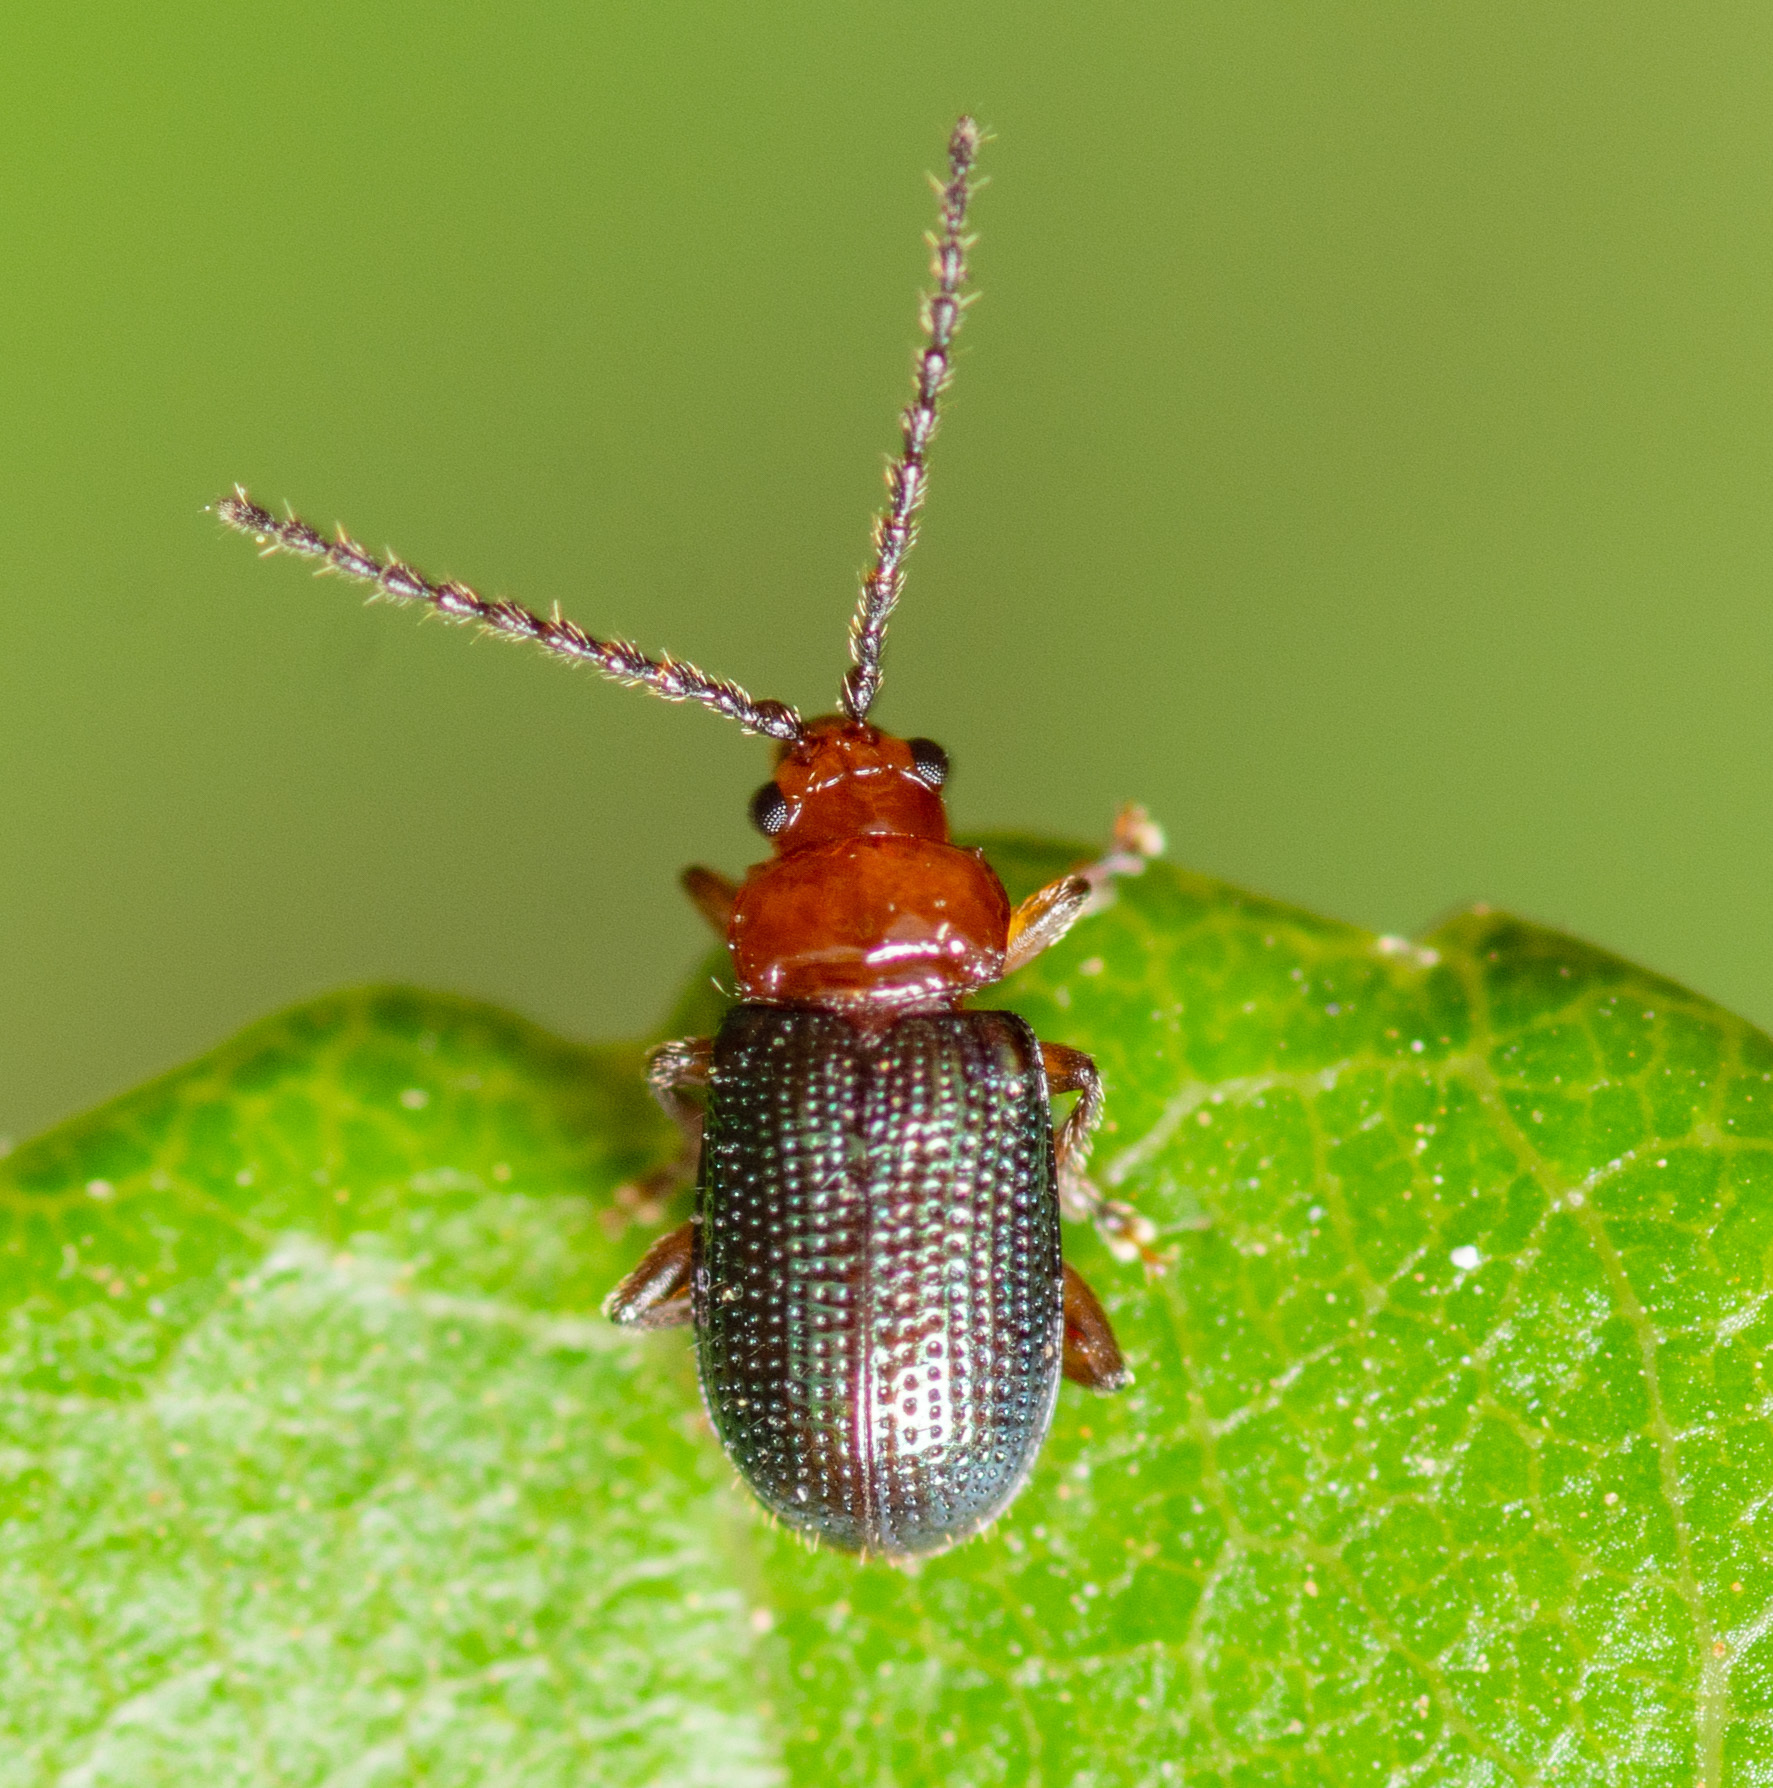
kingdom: Animalia
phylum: Arthropoda
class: Insecta
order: Coleoptera
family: Chrysomelidae
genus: Trichaltica
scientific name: Trichaltica scabricula
